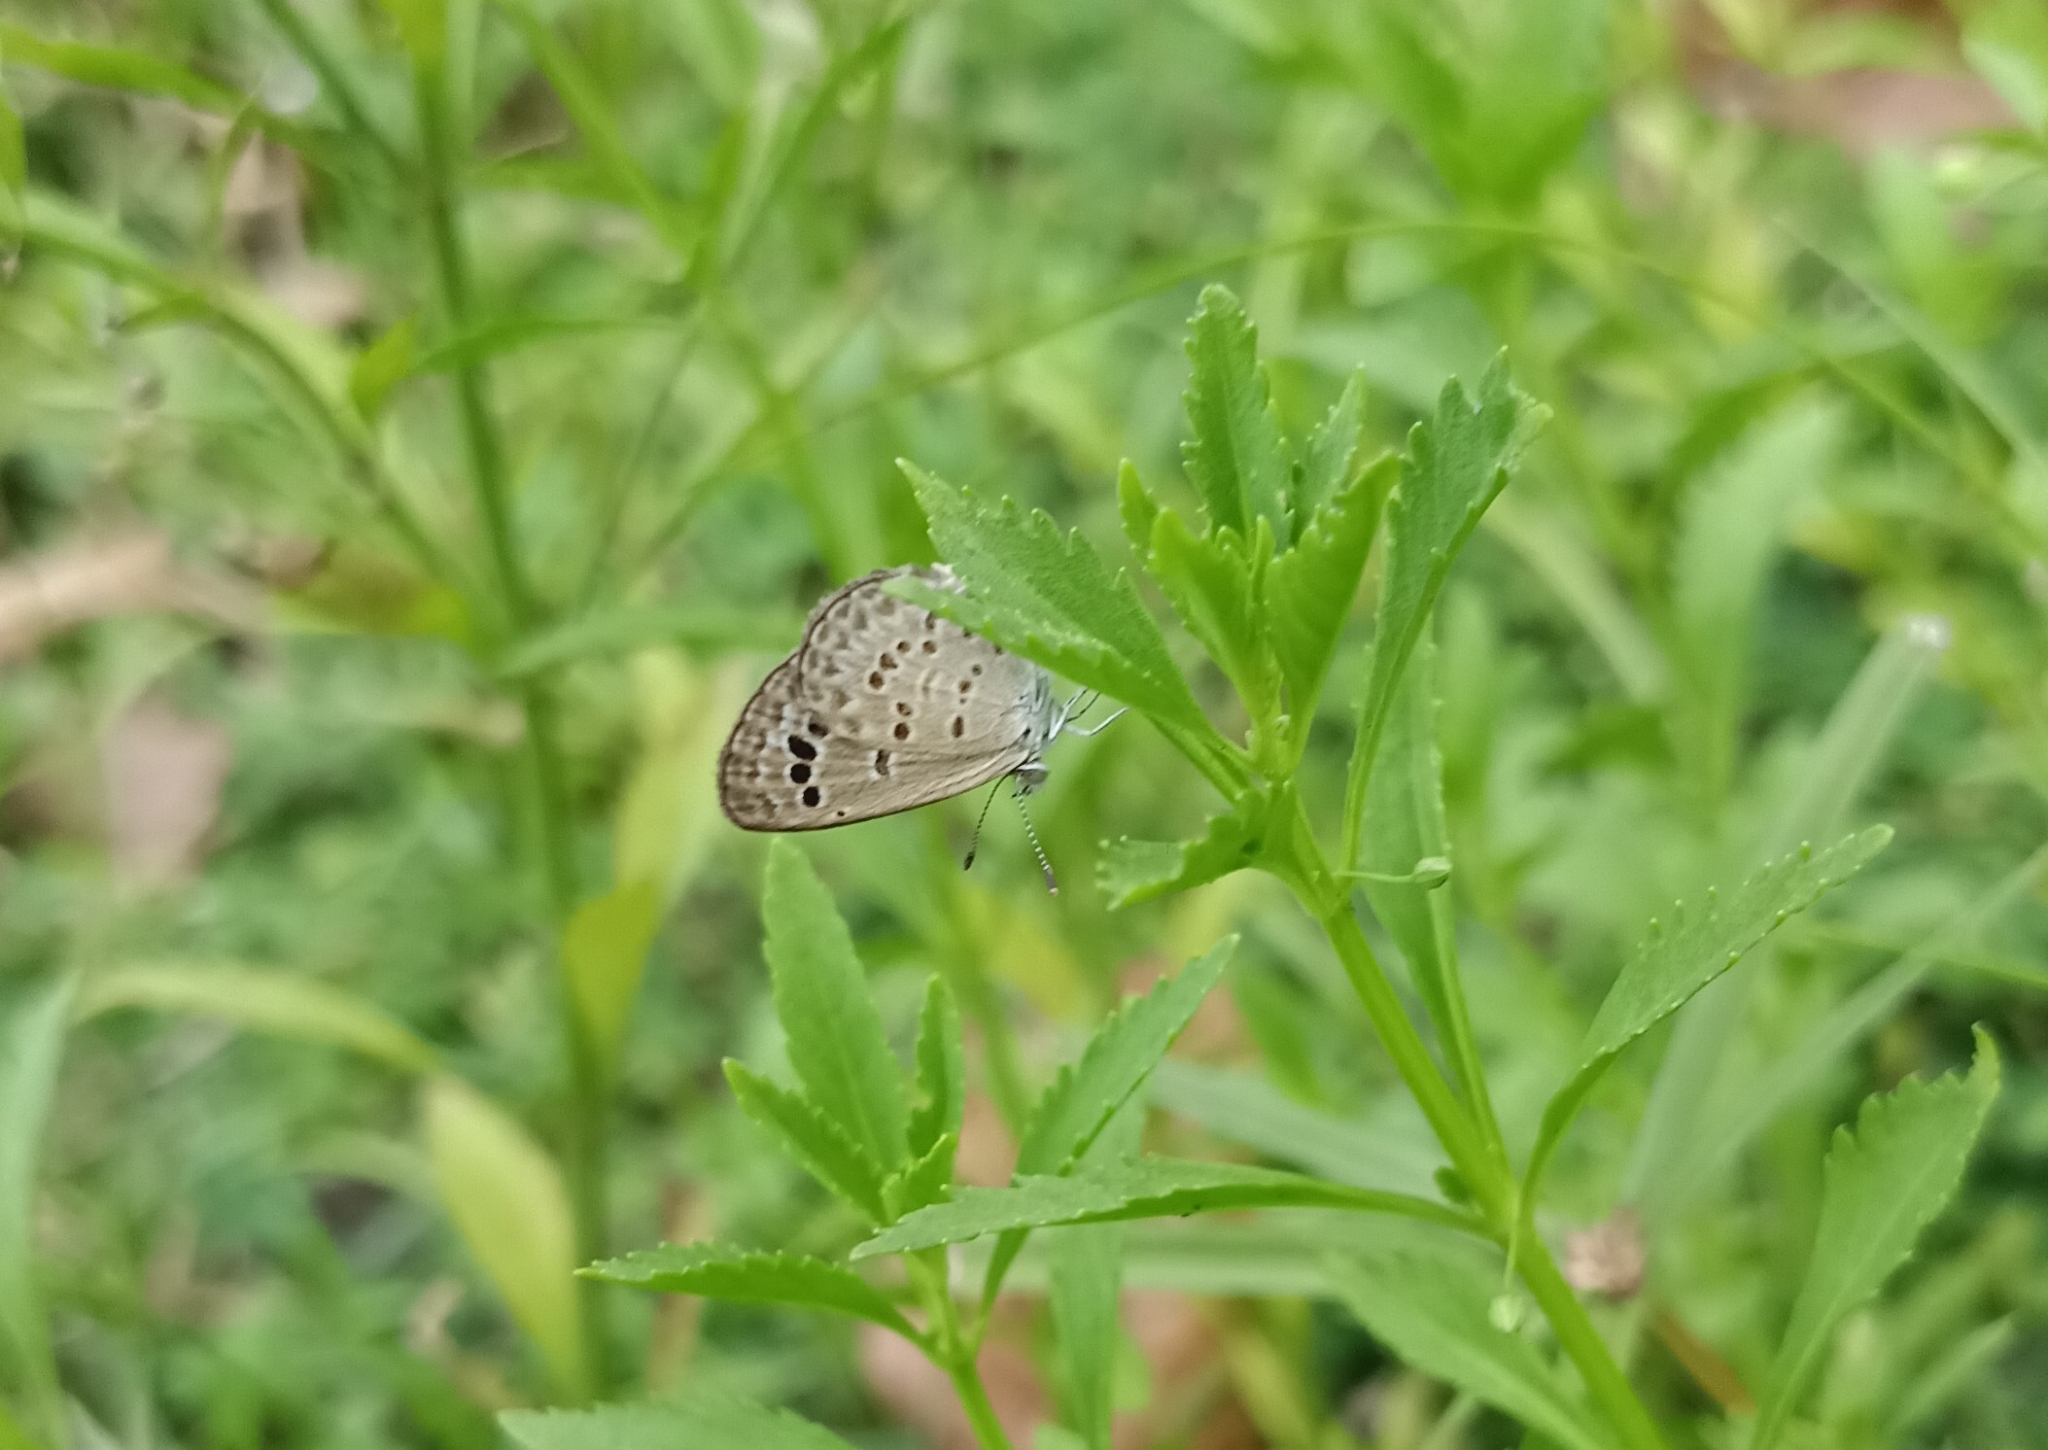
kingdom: Animalia
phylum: Arthropoda
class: Insecta
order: Lepidoptera
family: Lycaenidae
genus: Zizina
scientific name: Zizina otis
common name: Lesser grass blue
